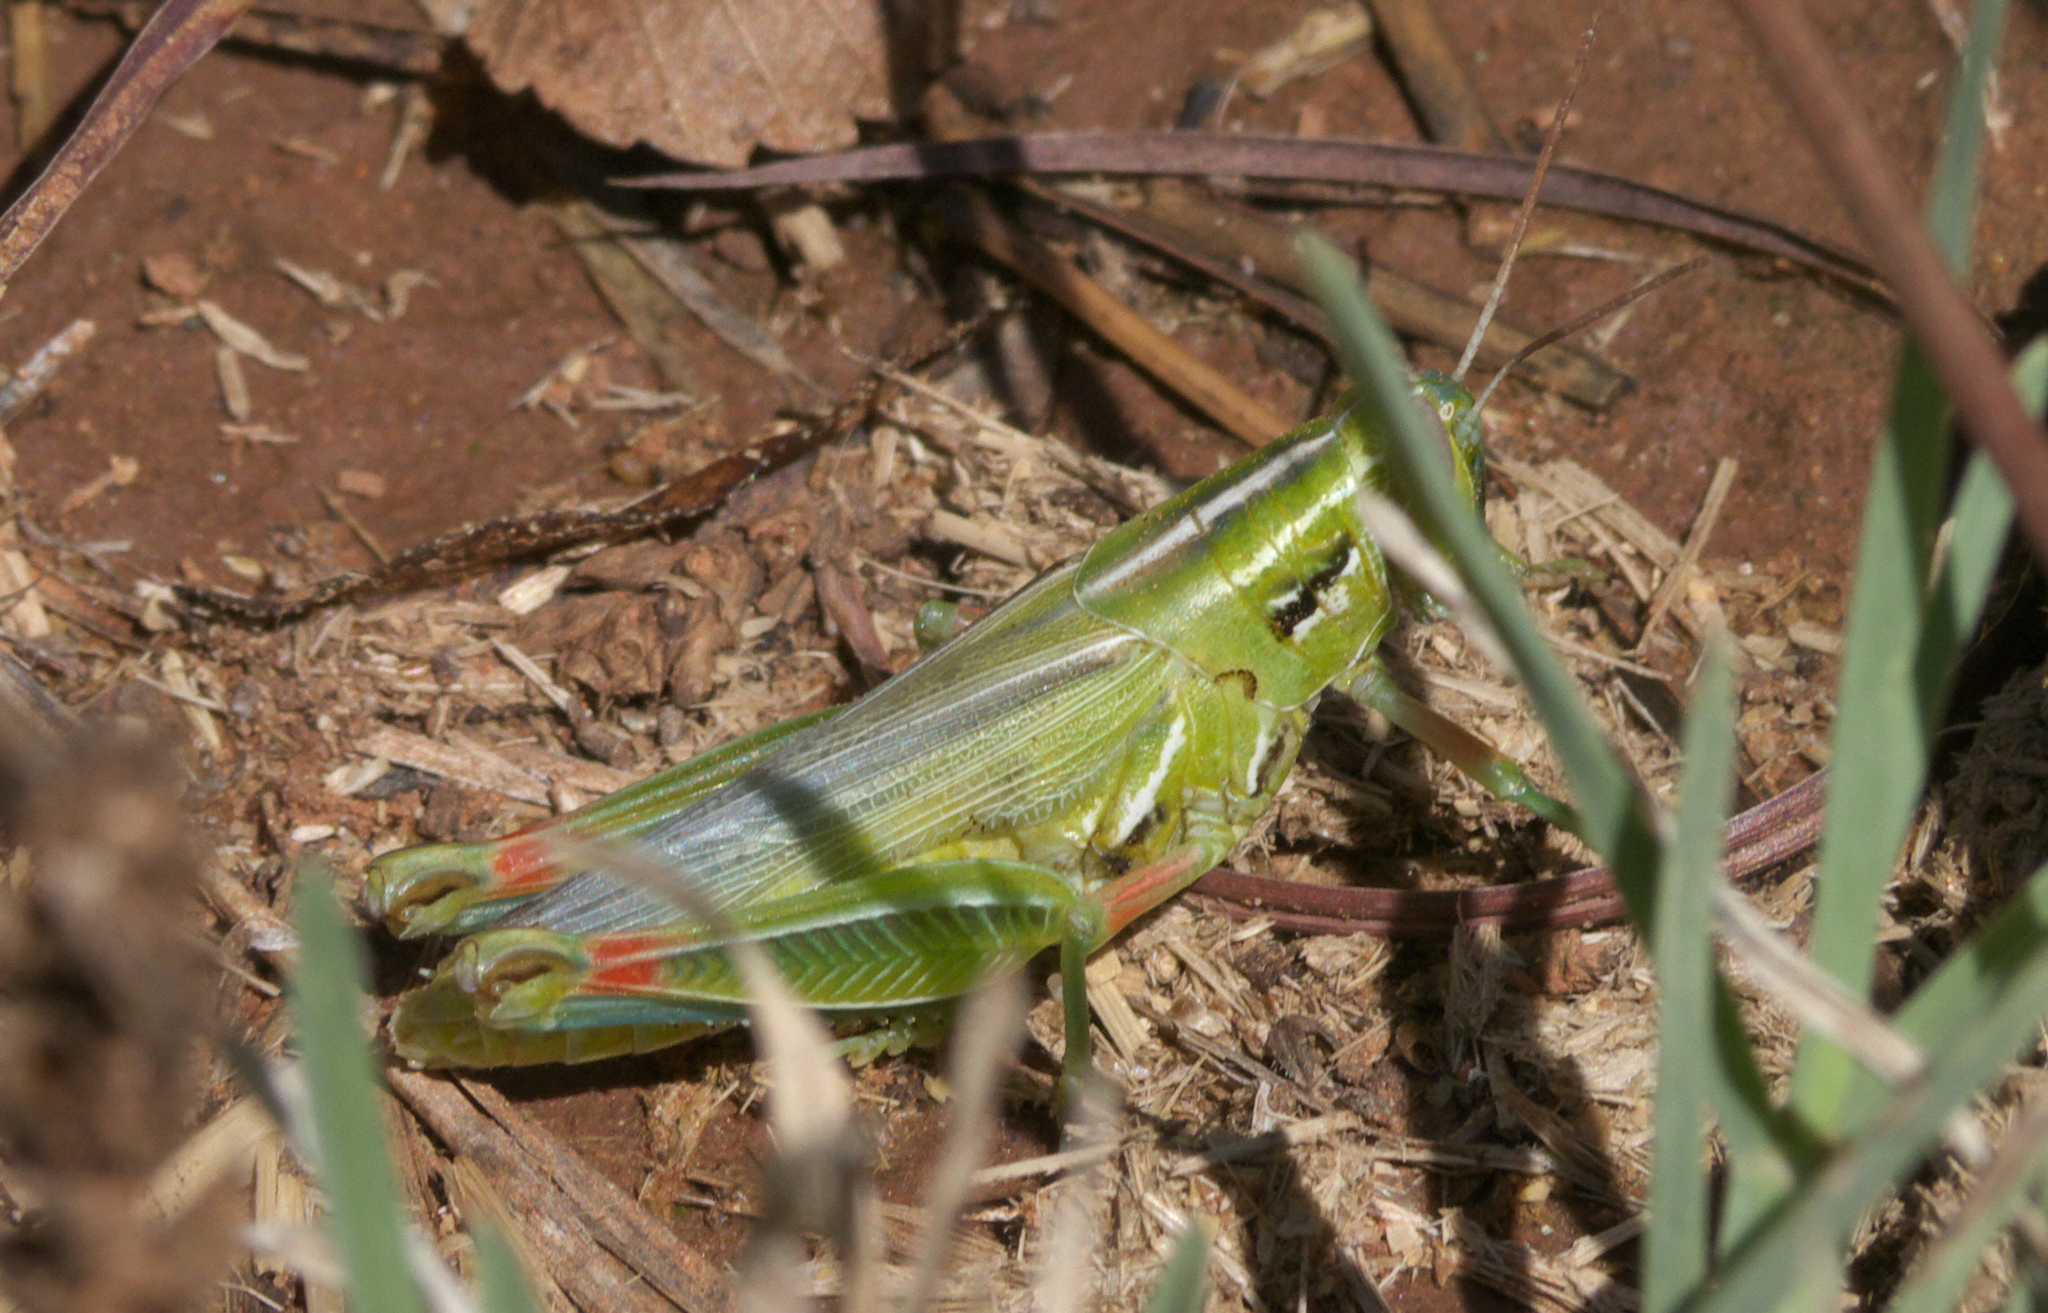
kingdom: Animalia
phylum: Arthropoda
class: Insecta
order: Orthoptera
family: Acrididae
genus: Hesperotettix
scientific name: Hesperotettix viridis
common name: Meadow purple-striped grasshopper
